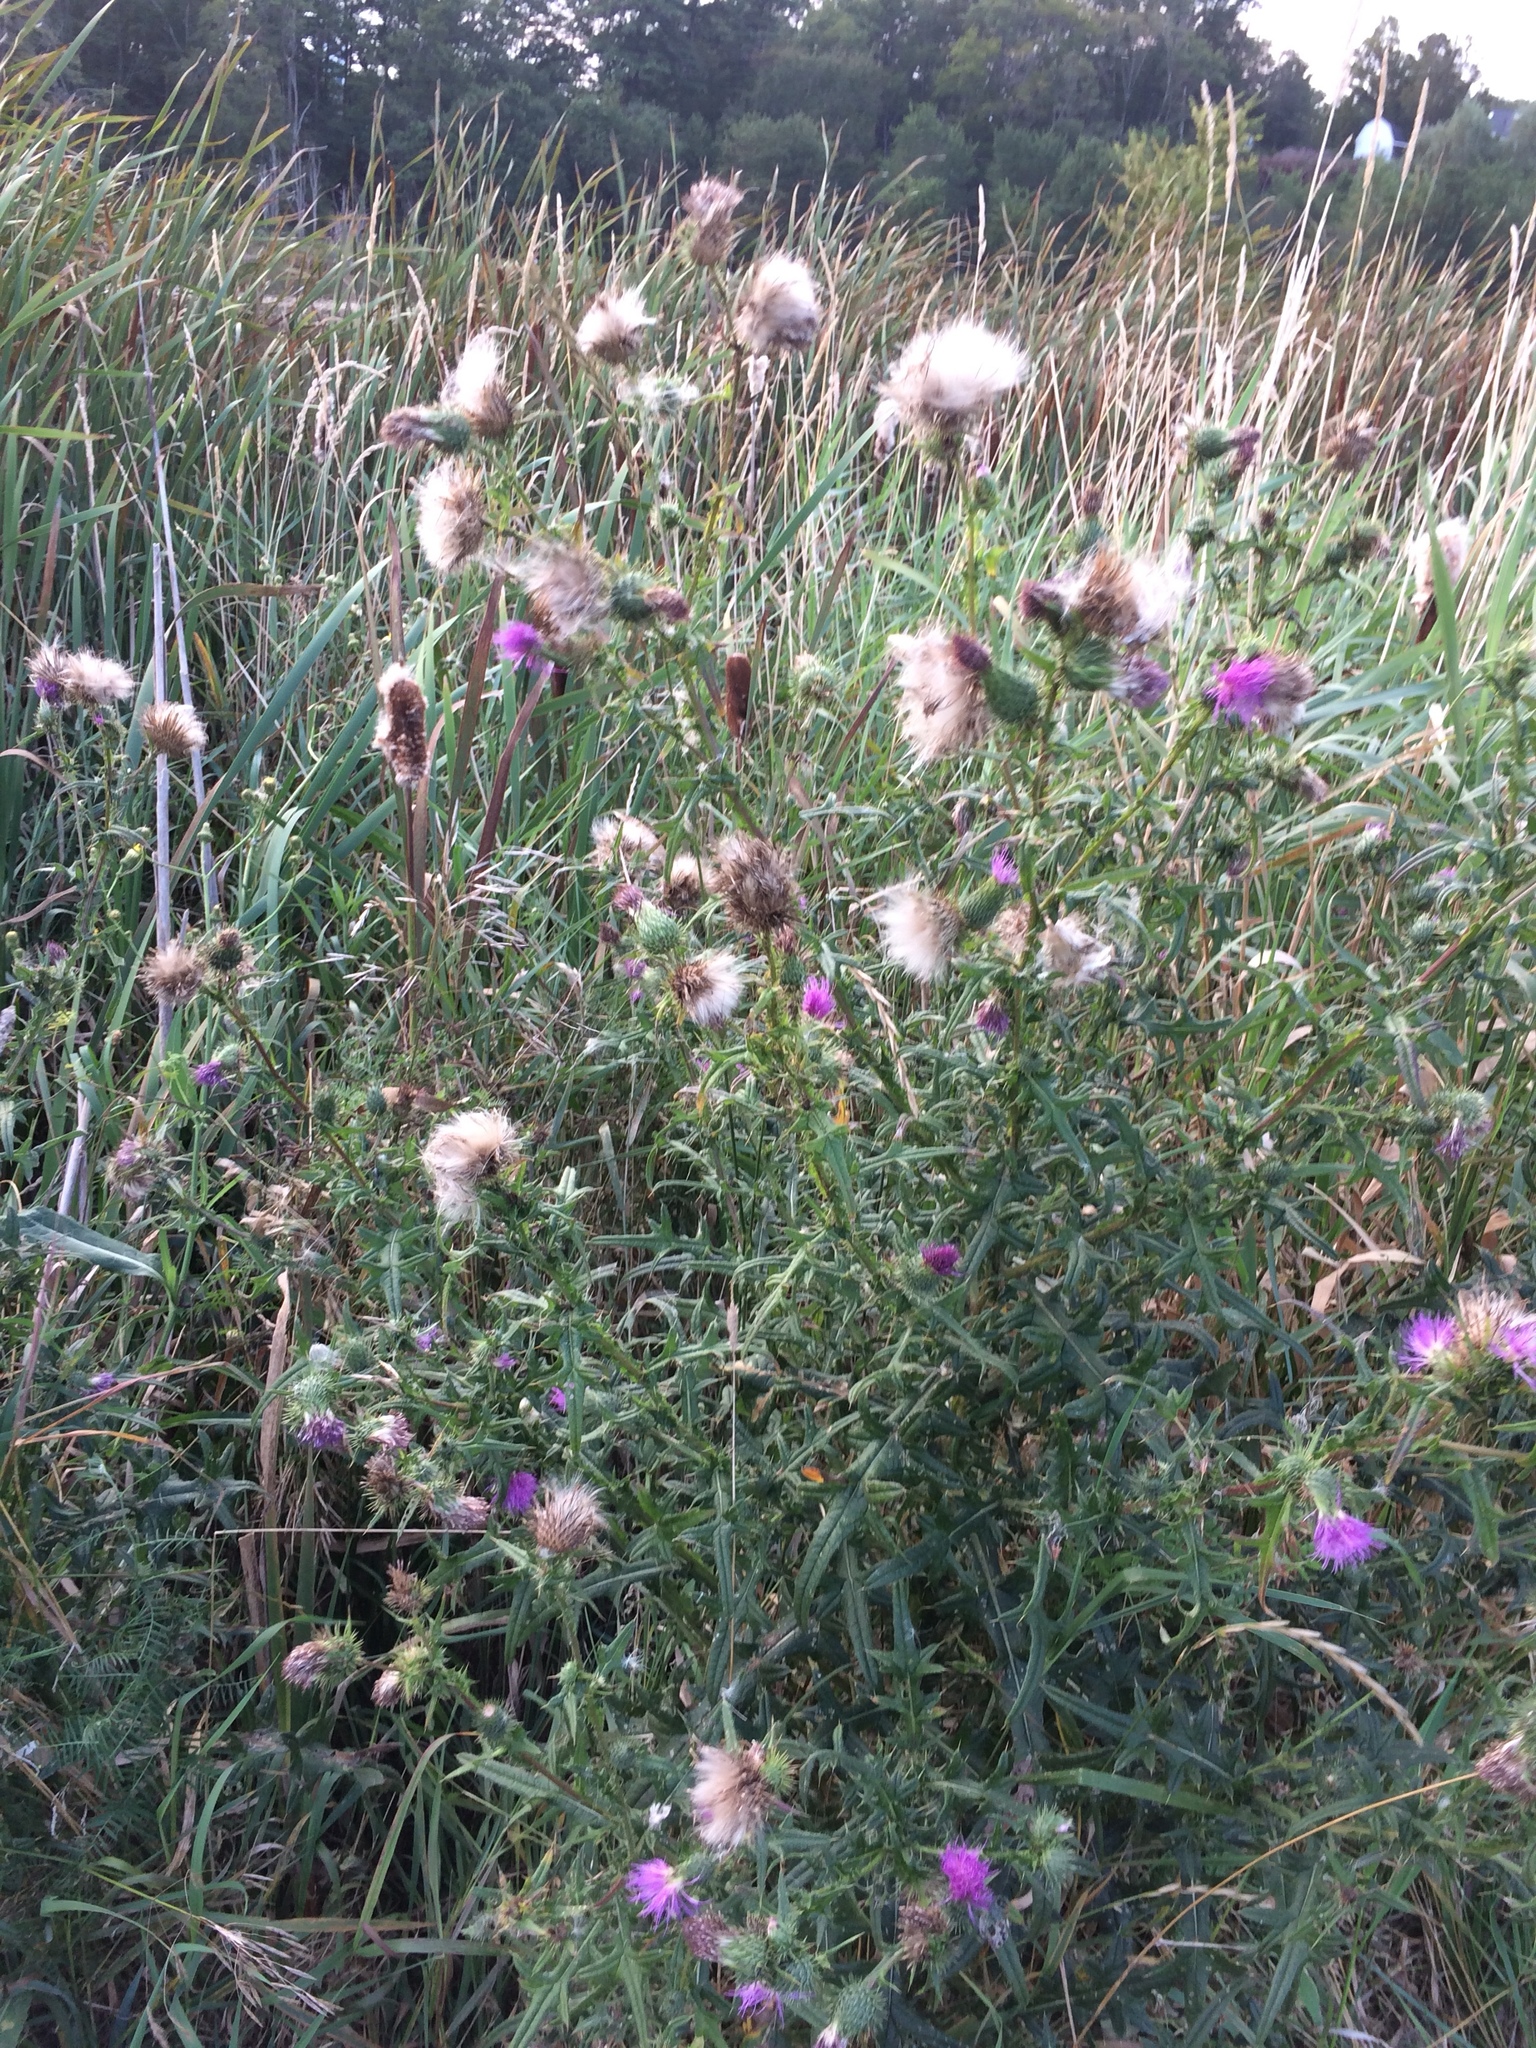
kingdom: Plantae
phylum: Tracheophyta
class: Magnoliopsida
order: Asterales
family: Asteraceae
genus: Cirsium
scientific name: Cirsium vulgare
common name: Bull thistle
